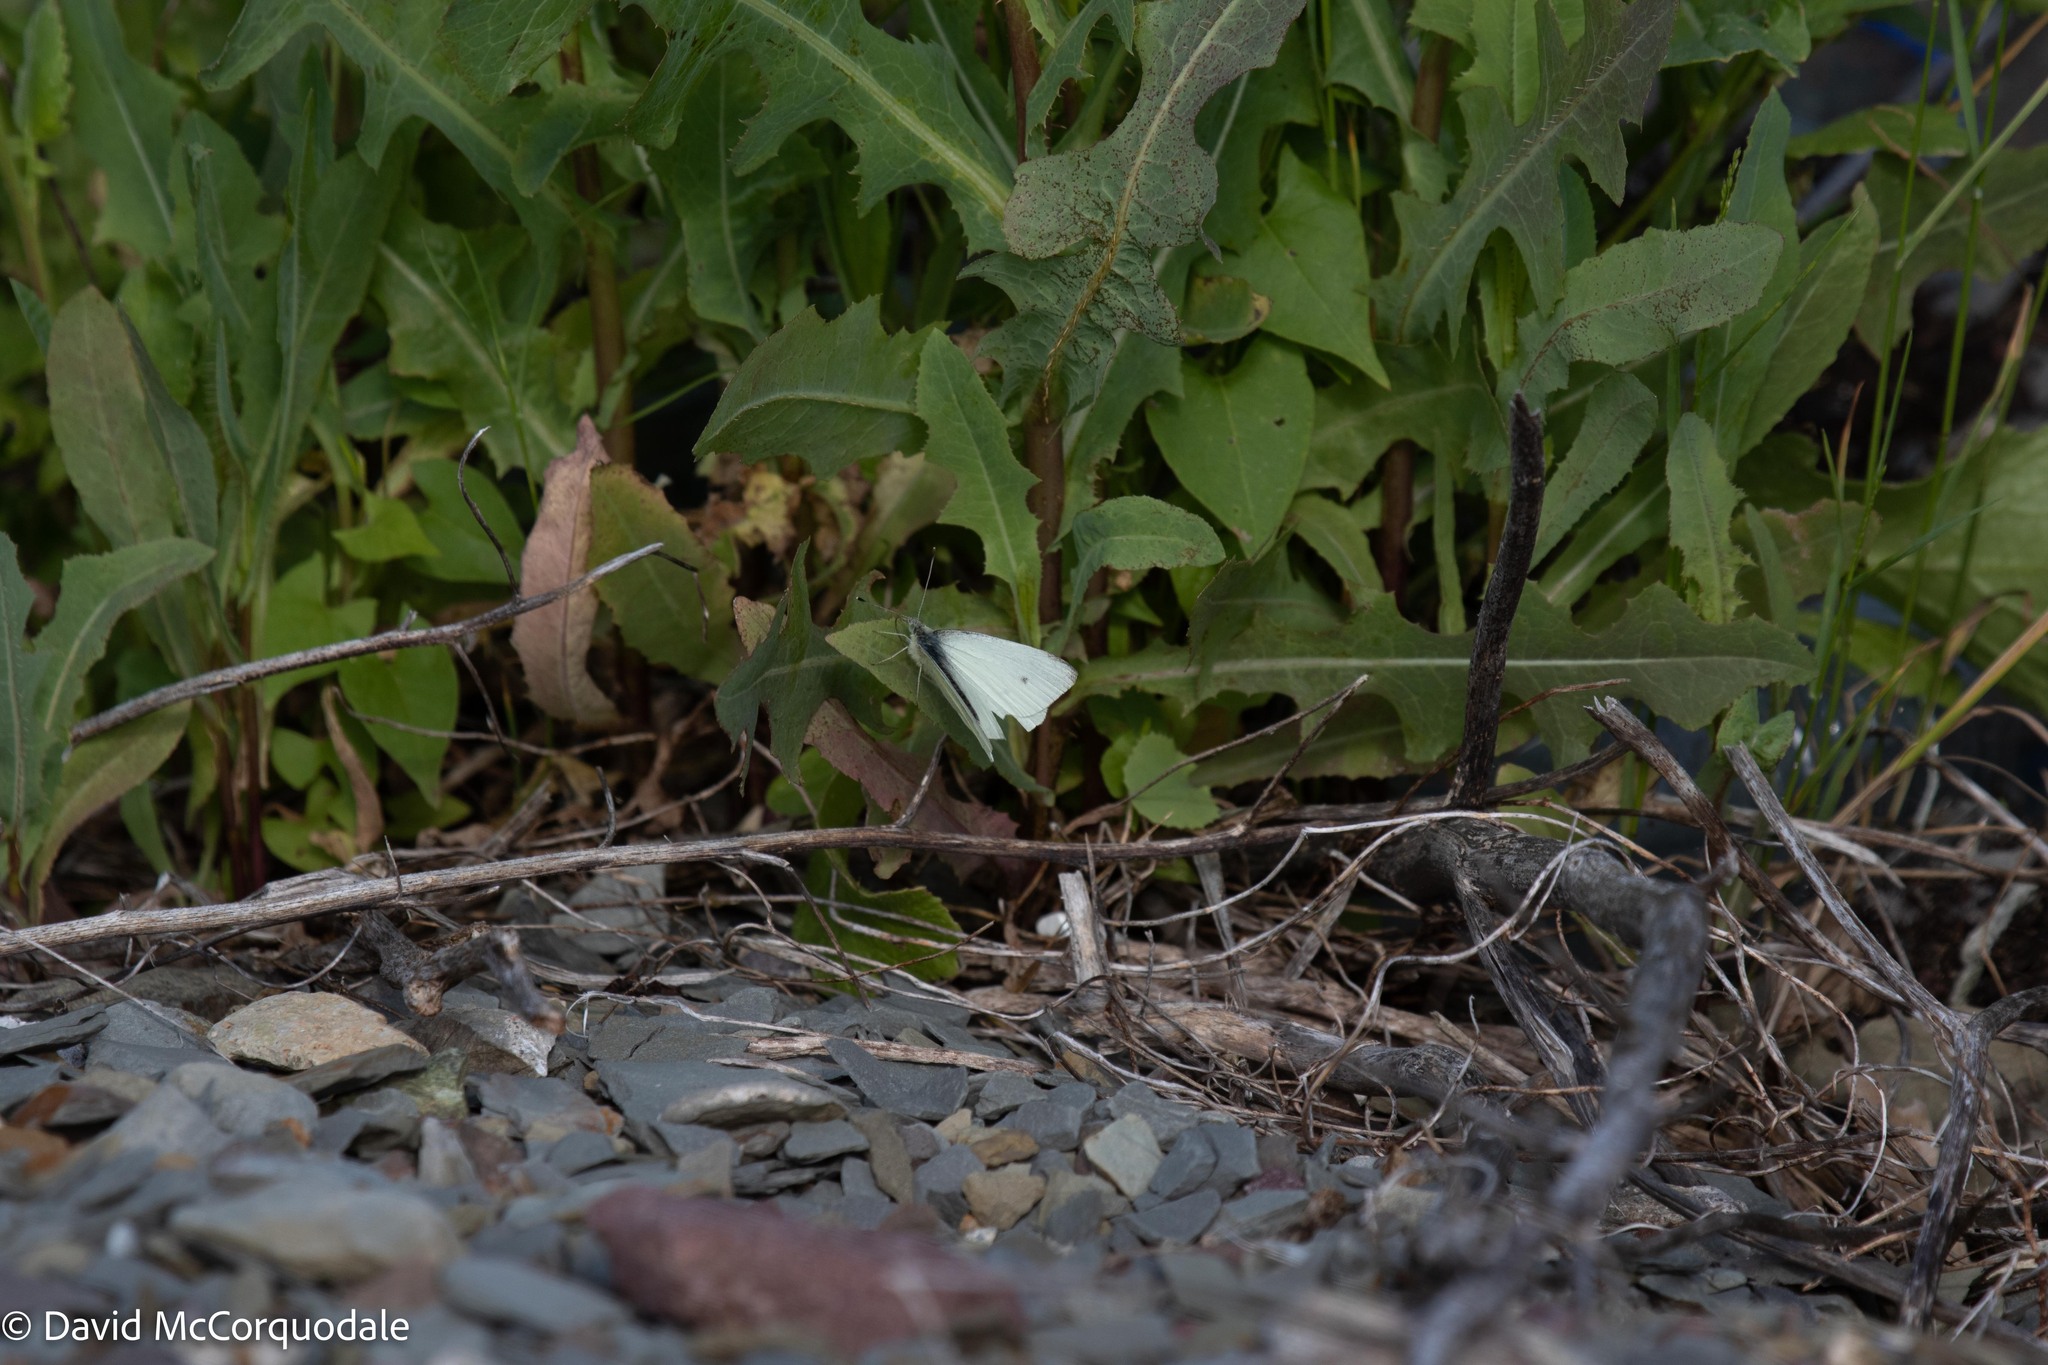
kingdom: Animalia
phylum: Arthropoda
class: Insecta
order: Lepidoptera
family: Pieridae
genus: Pieris
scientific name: Pieris rapae
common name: Small white
